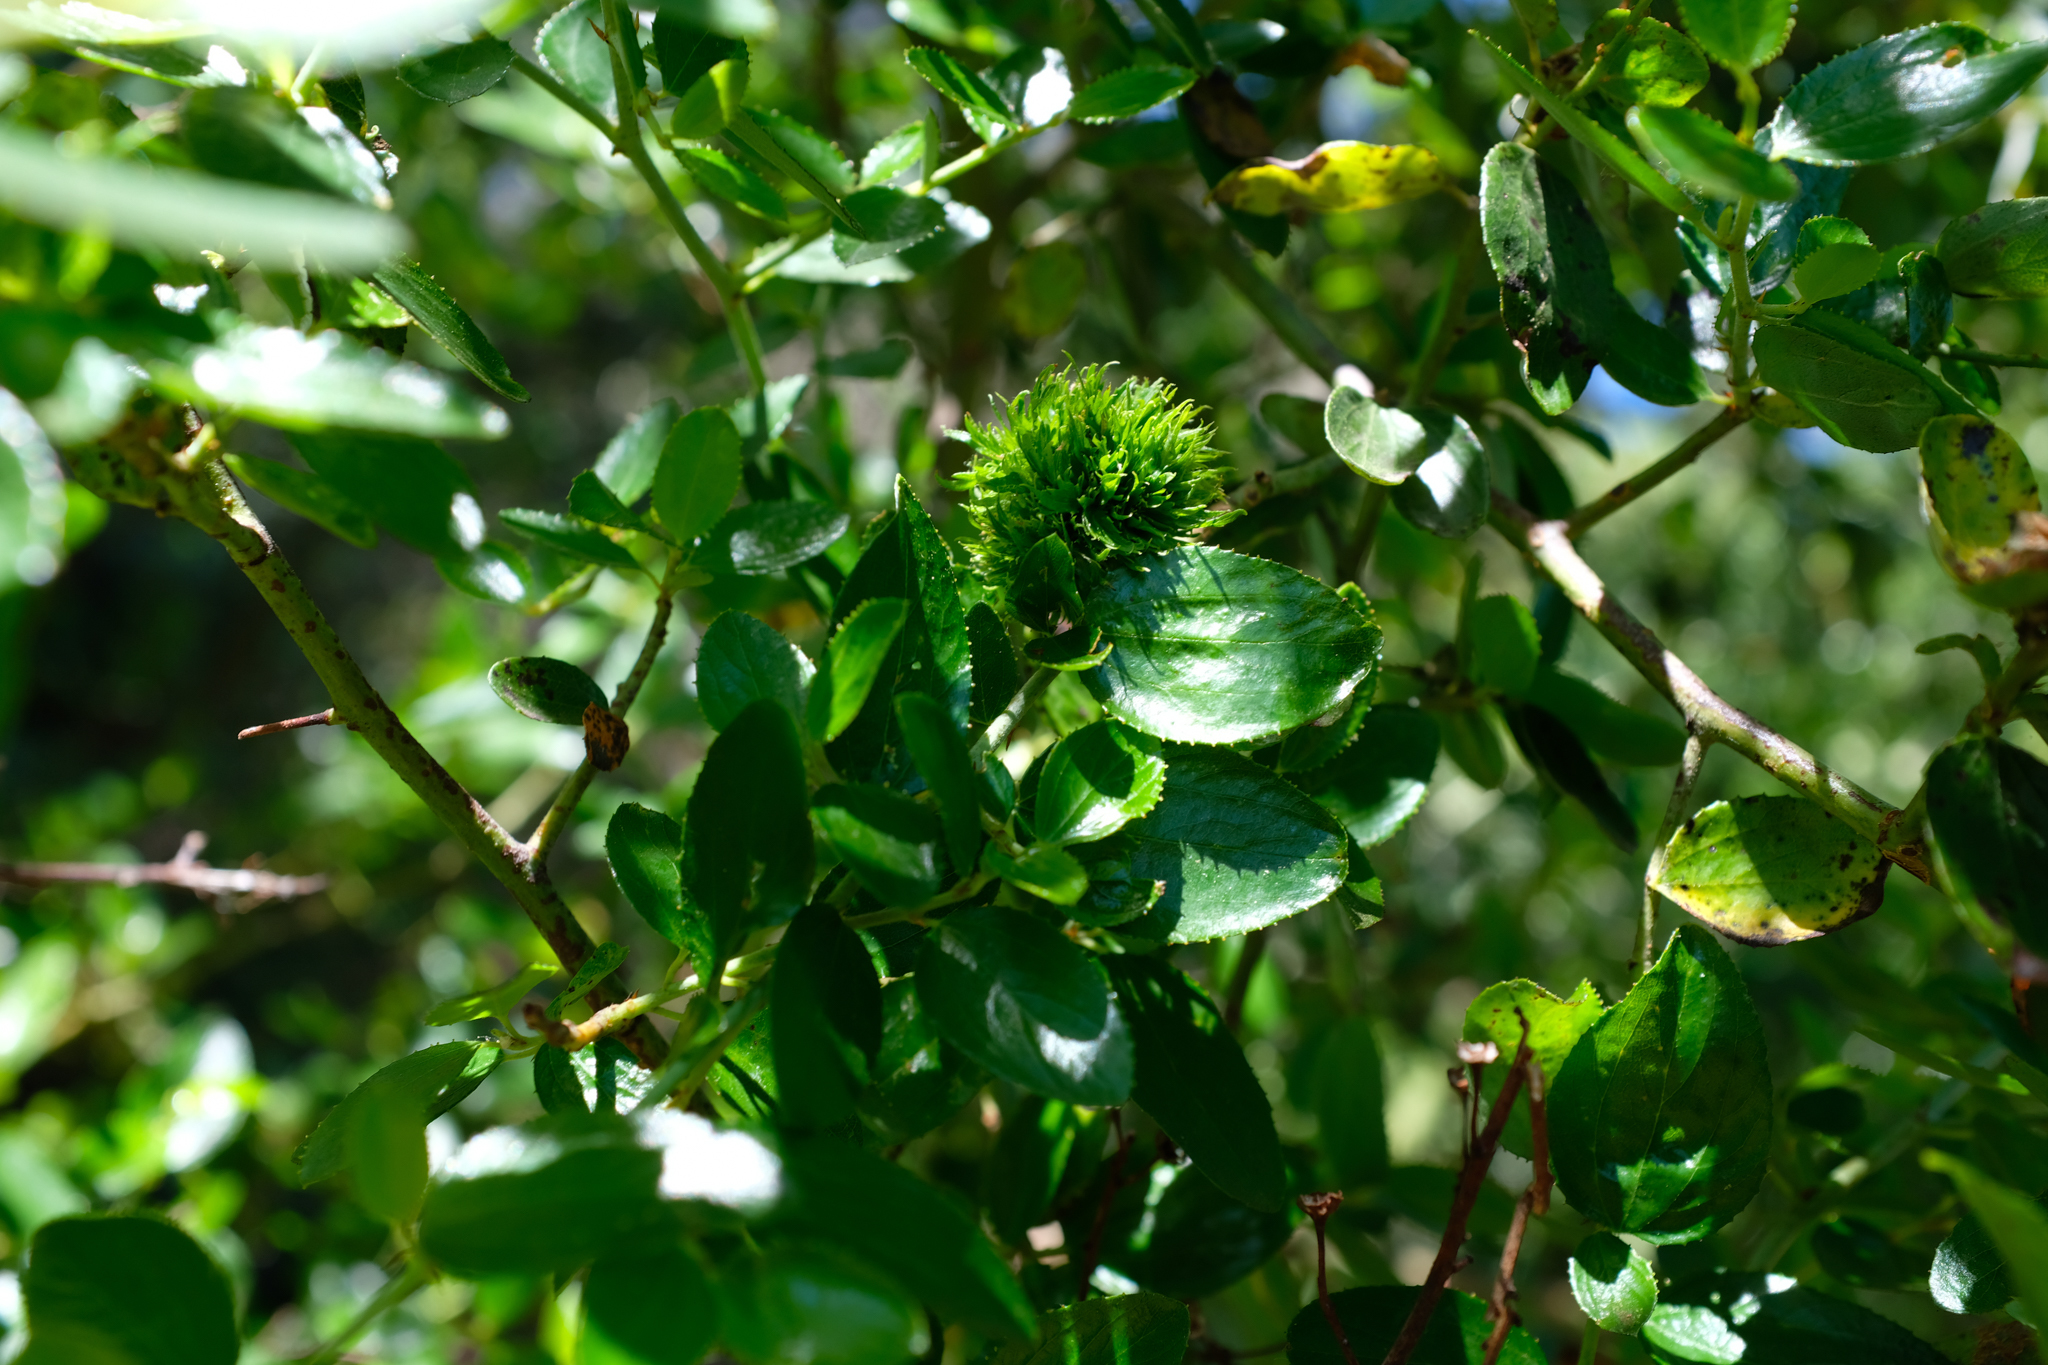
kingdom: Animalia
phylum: Arthropoda
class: Insecta
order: Diptera
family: Cecidomyiidae
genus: Asphondylia
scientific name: Asphondylia ceanothi
